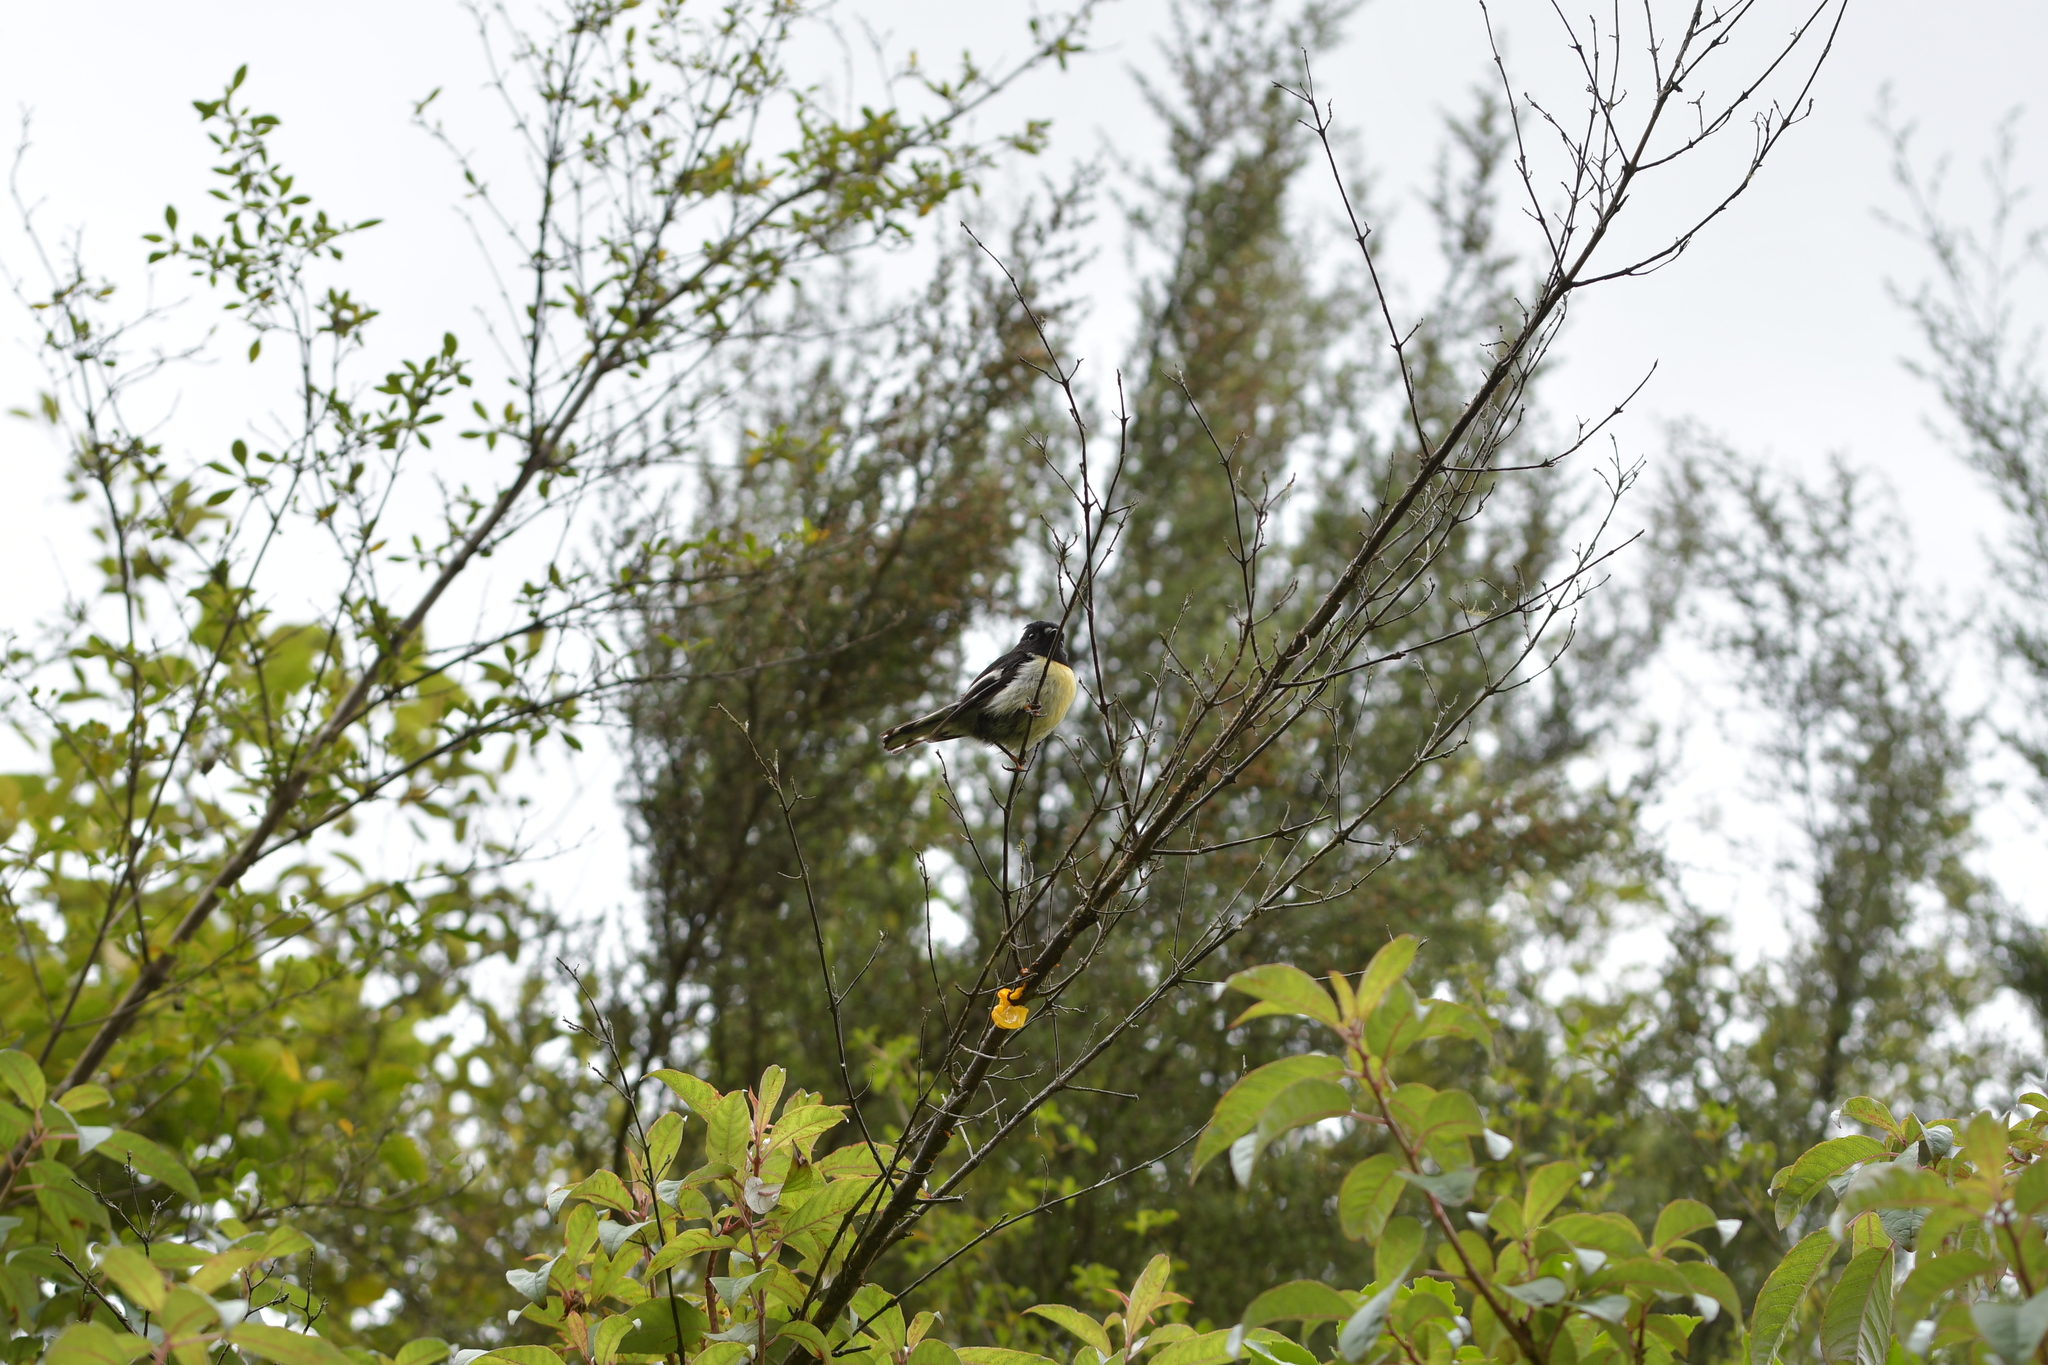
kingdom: Animalia
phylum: Chordata
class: Aves
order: Passeriformes
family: Petroicidae
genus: Petroica
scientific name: Petroica macrocephala
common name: Tomtit
